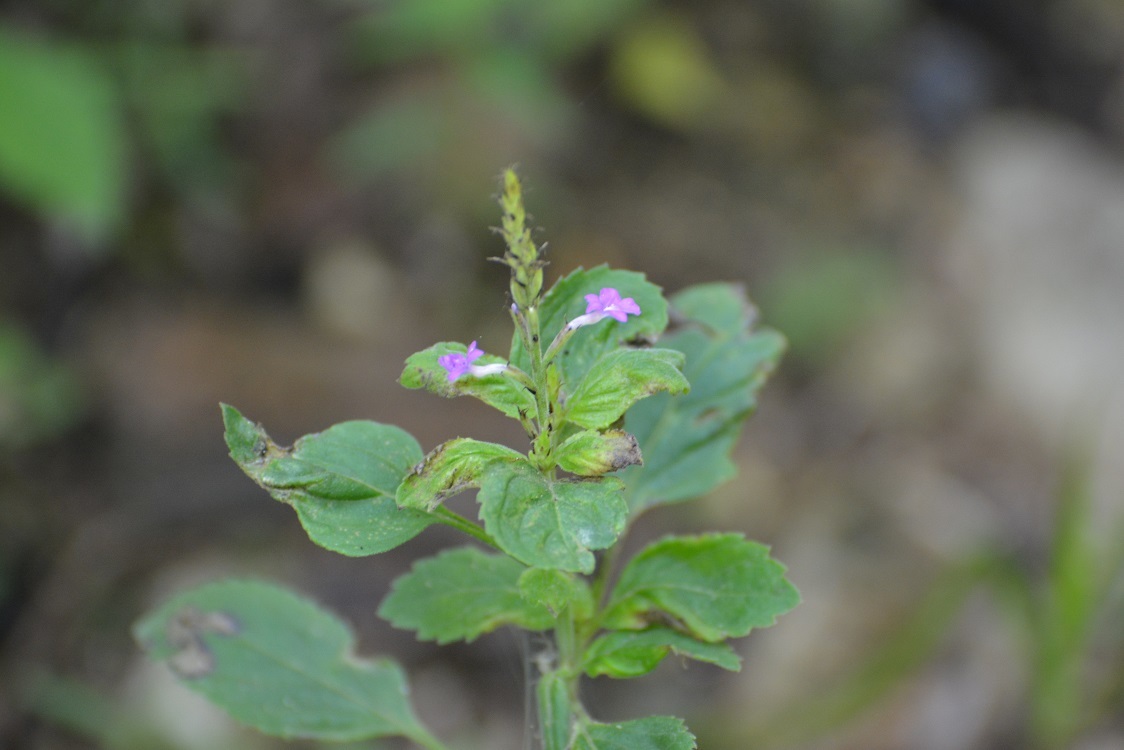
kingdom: Plantae
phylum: Tracheophyta
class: Magnoliopsida
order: Lamiales
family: Verbenaceae
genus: Bouchea
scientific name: Bouchea prismatica
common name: Vervine
